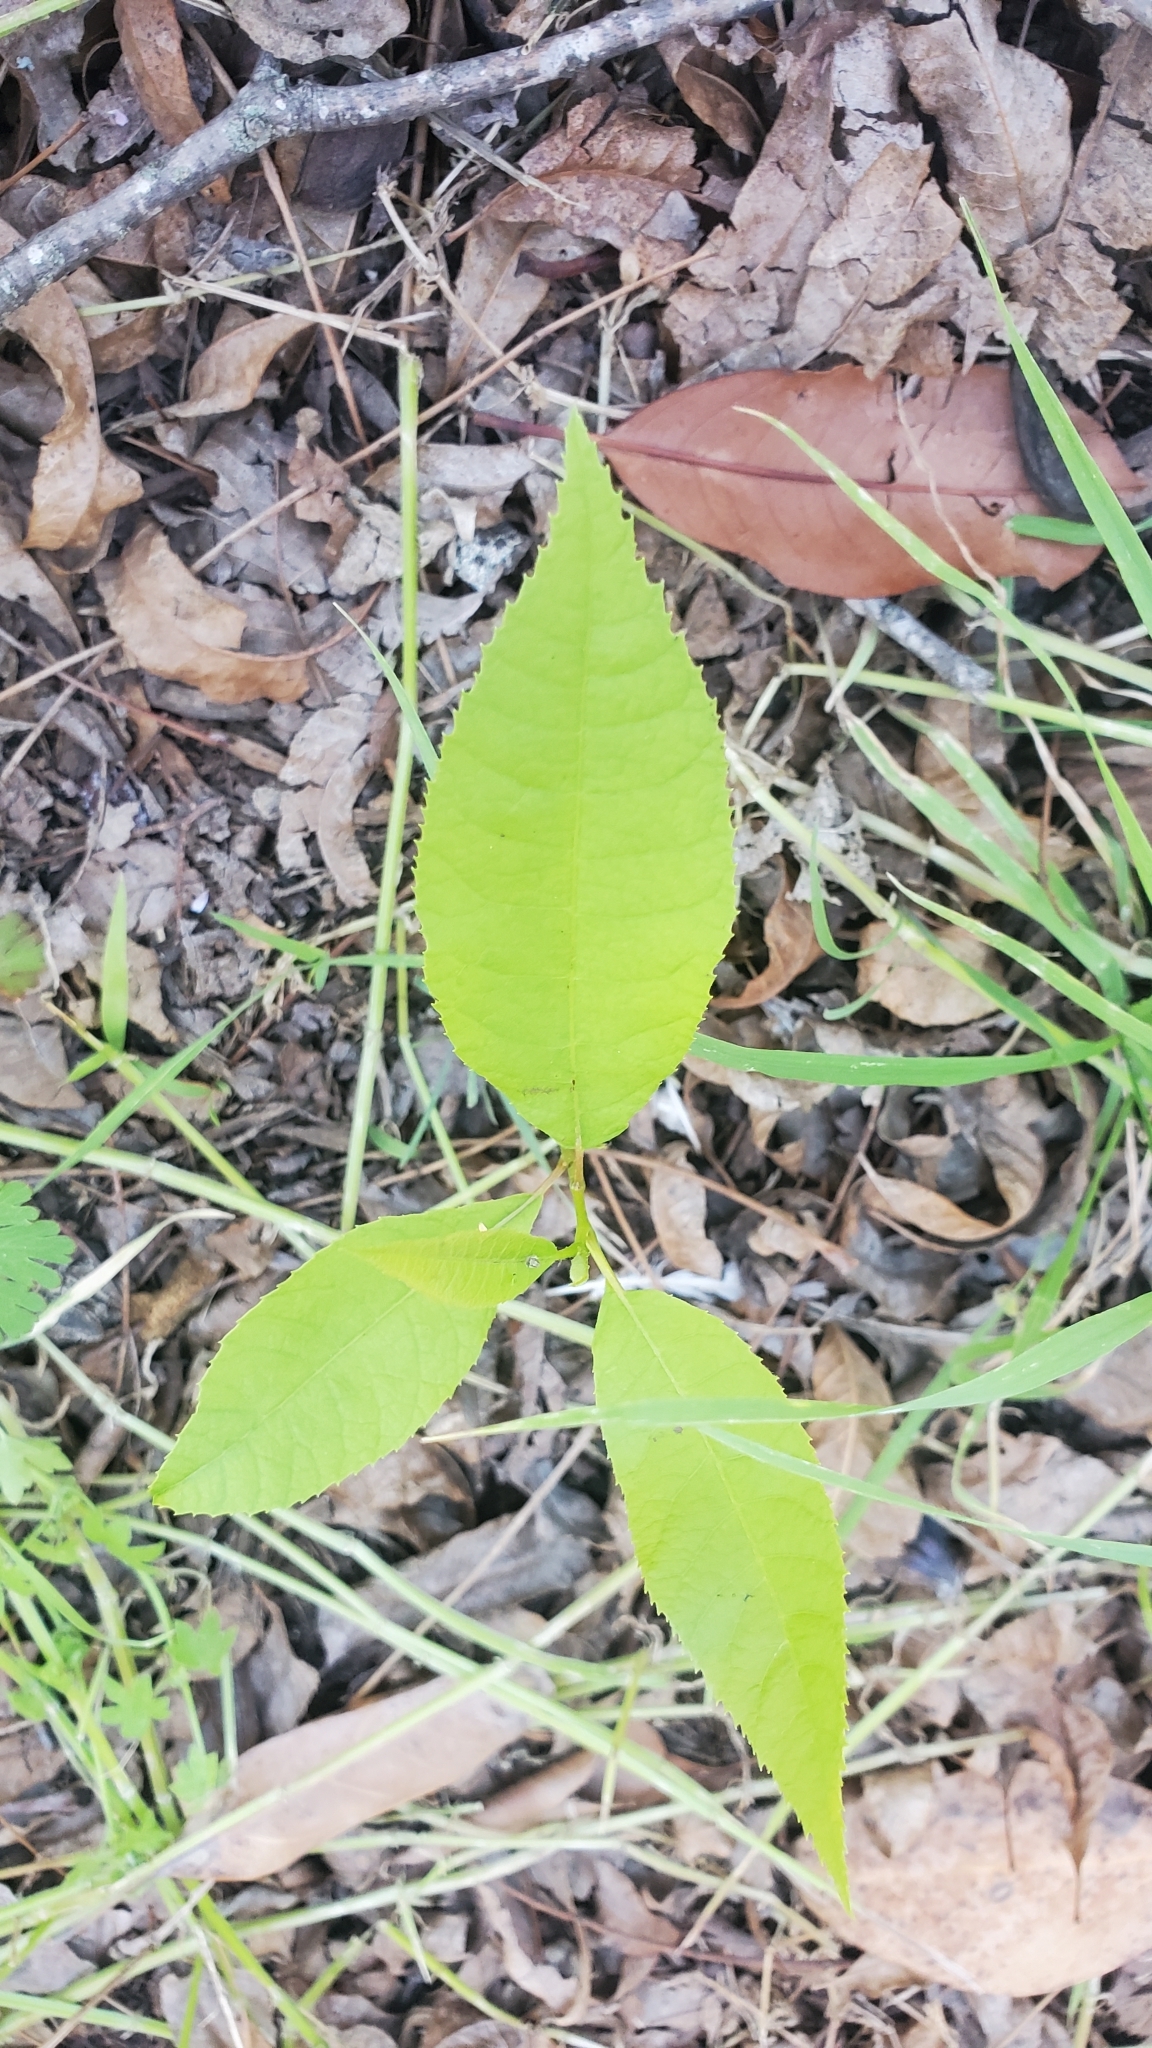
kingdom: Plantae
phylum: Tracheophyta
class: Magnoliopsida
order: Fagales
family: Juglandaceae
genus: Carya
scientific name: Carya illinoinensis
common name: Pecan
